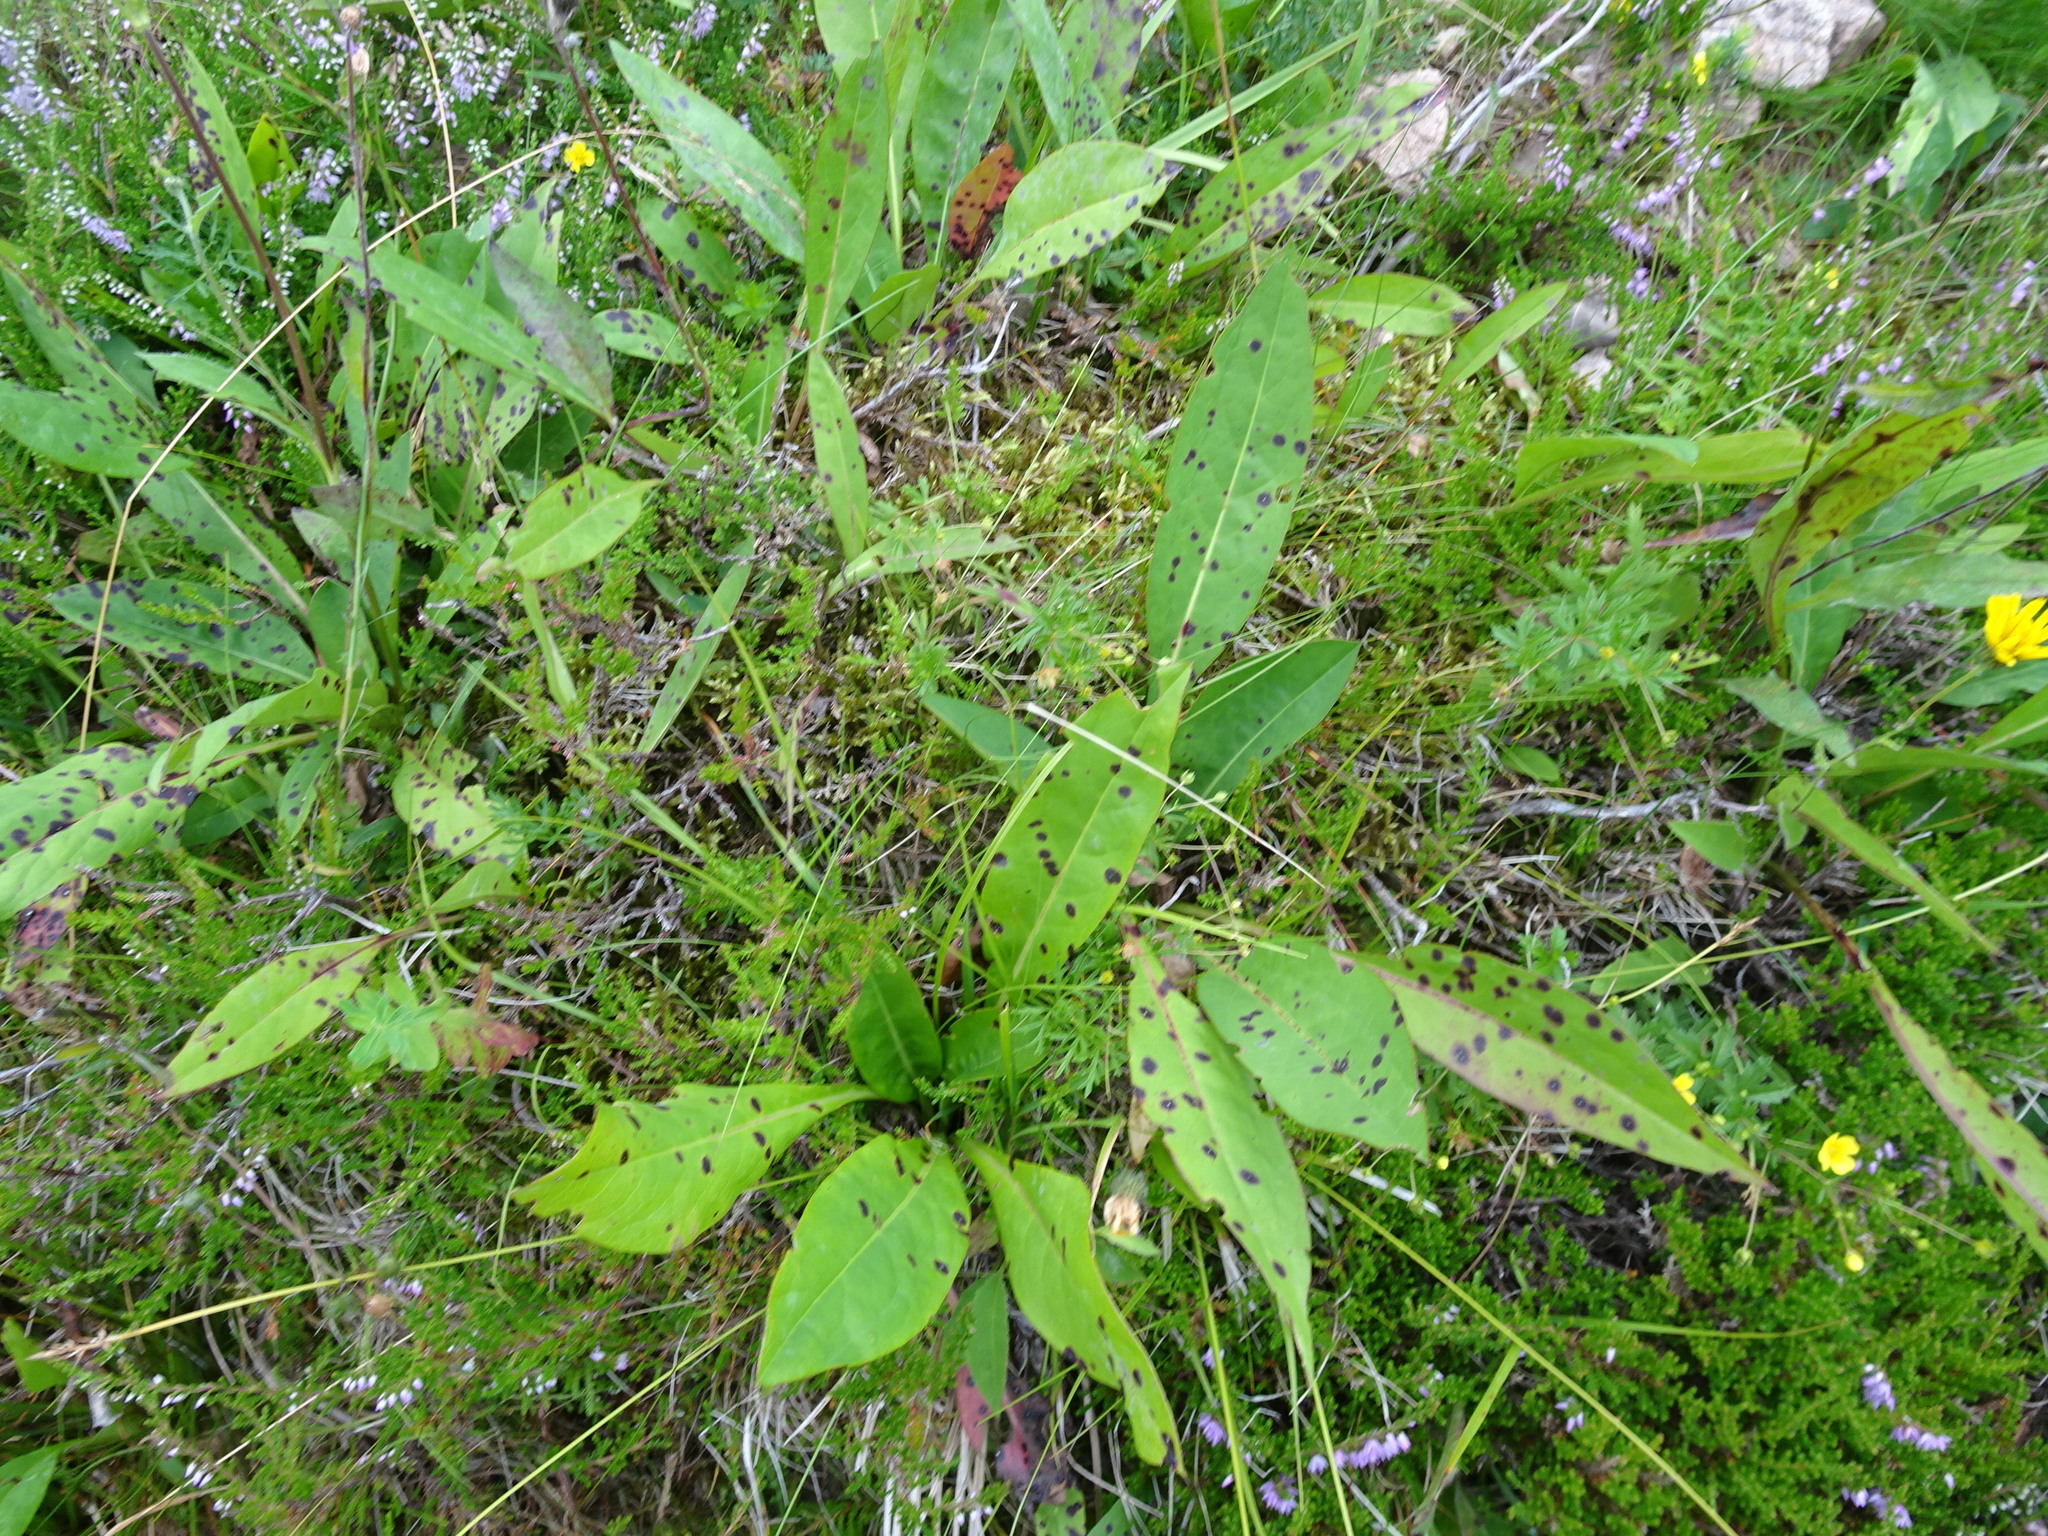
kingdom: Plantae
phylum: Tracheophyta
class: Magnoliopsida
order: Dipsacales
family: Caprifoliaceae
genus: Succisa
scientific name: Succisa pratensis
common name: Devil's-bit
